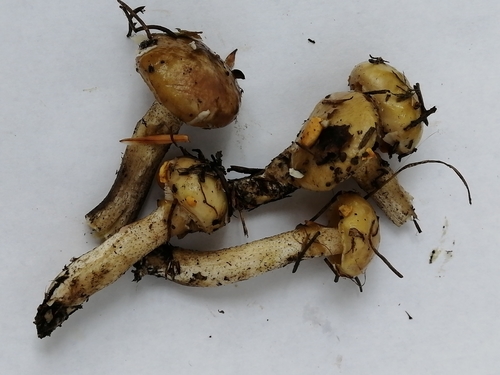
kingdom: Fungi
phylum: Basidiomycota
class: Agaricomycetes
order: Boletales
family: Suillaceae
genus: Suillus
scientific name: Suillus americanus
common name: Chicken fat mushroom
